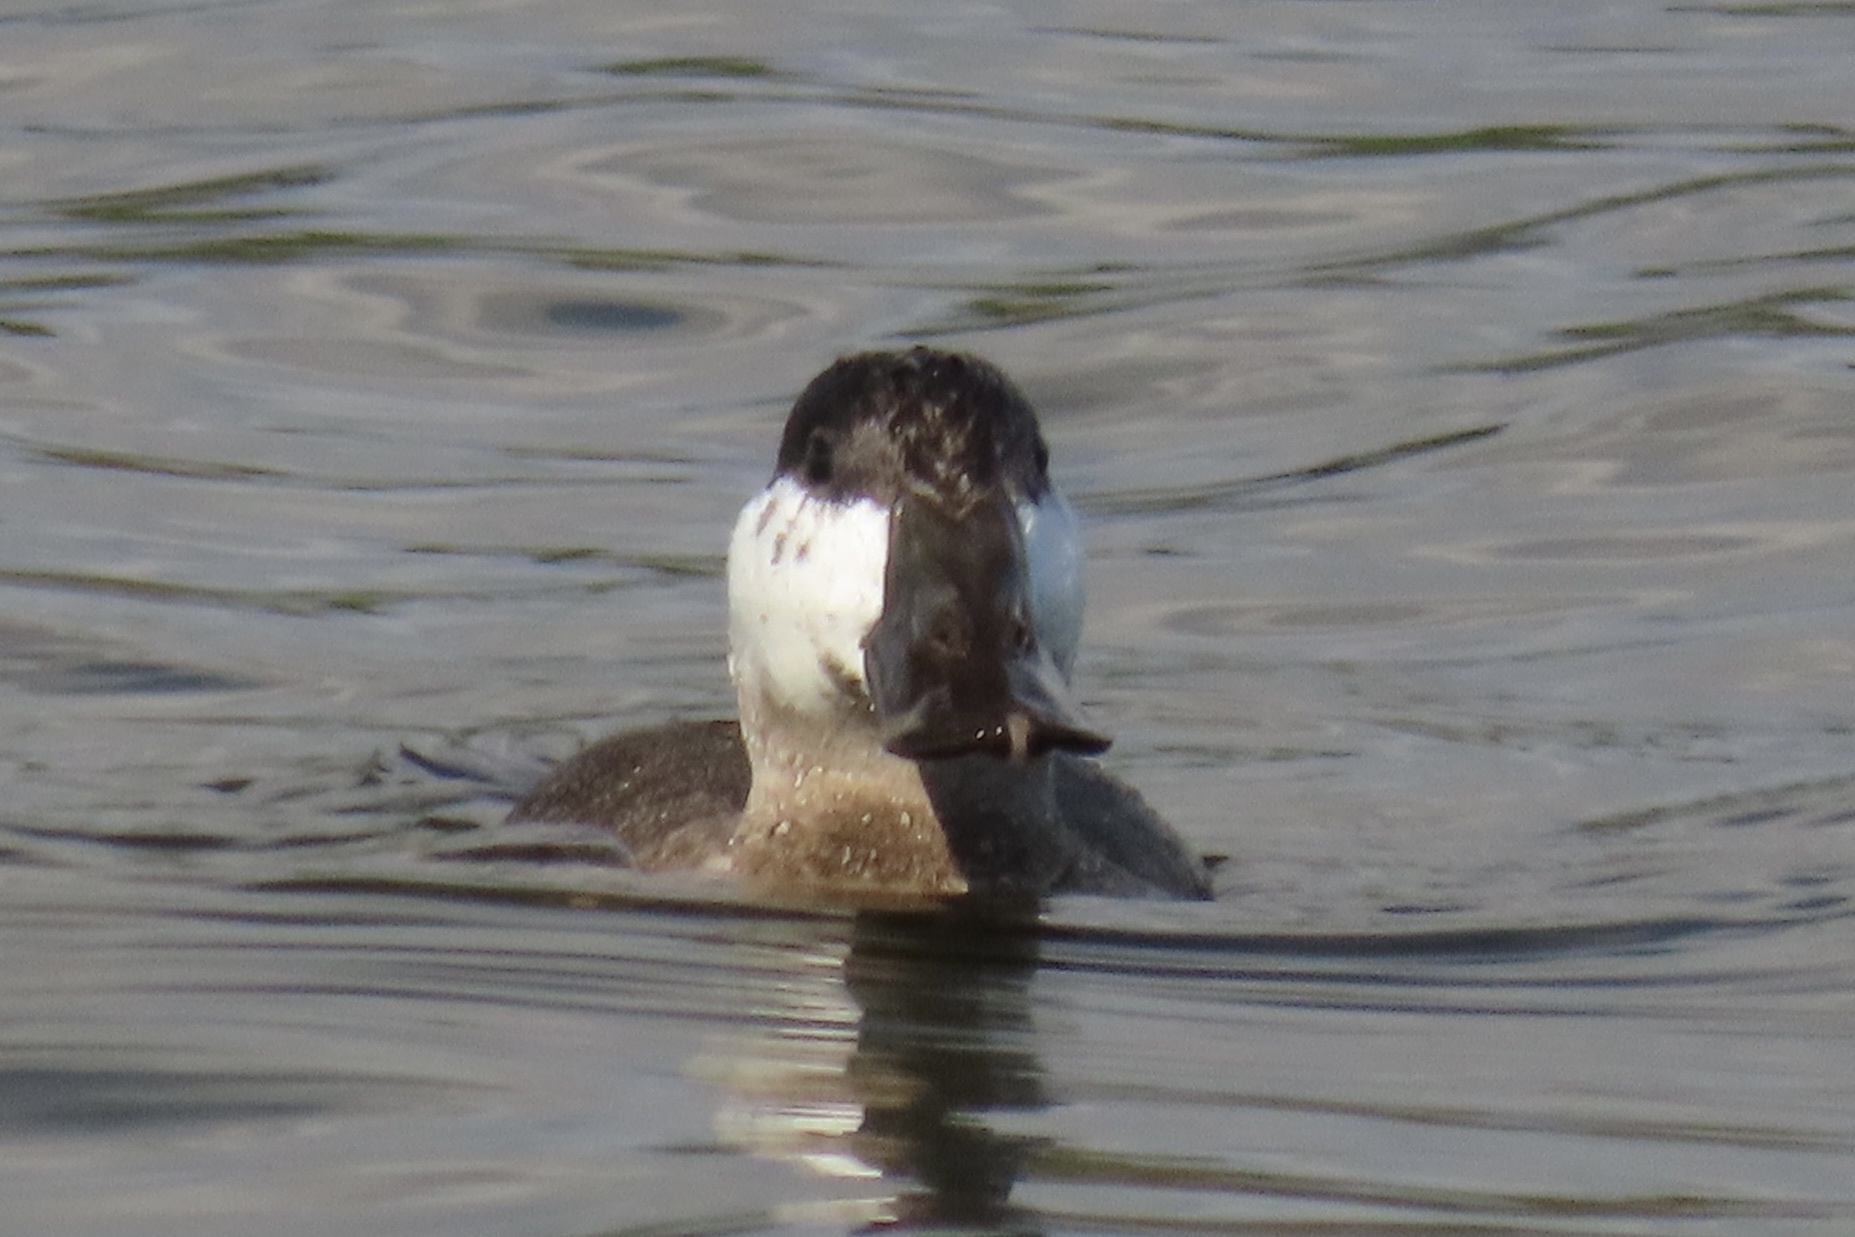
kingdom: Animalia
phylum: Chordata
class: Aves
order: Anseriformes
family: Anatidae
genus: Oxyura
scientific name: Oxyura jamaicensis
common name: Ruddy duck
